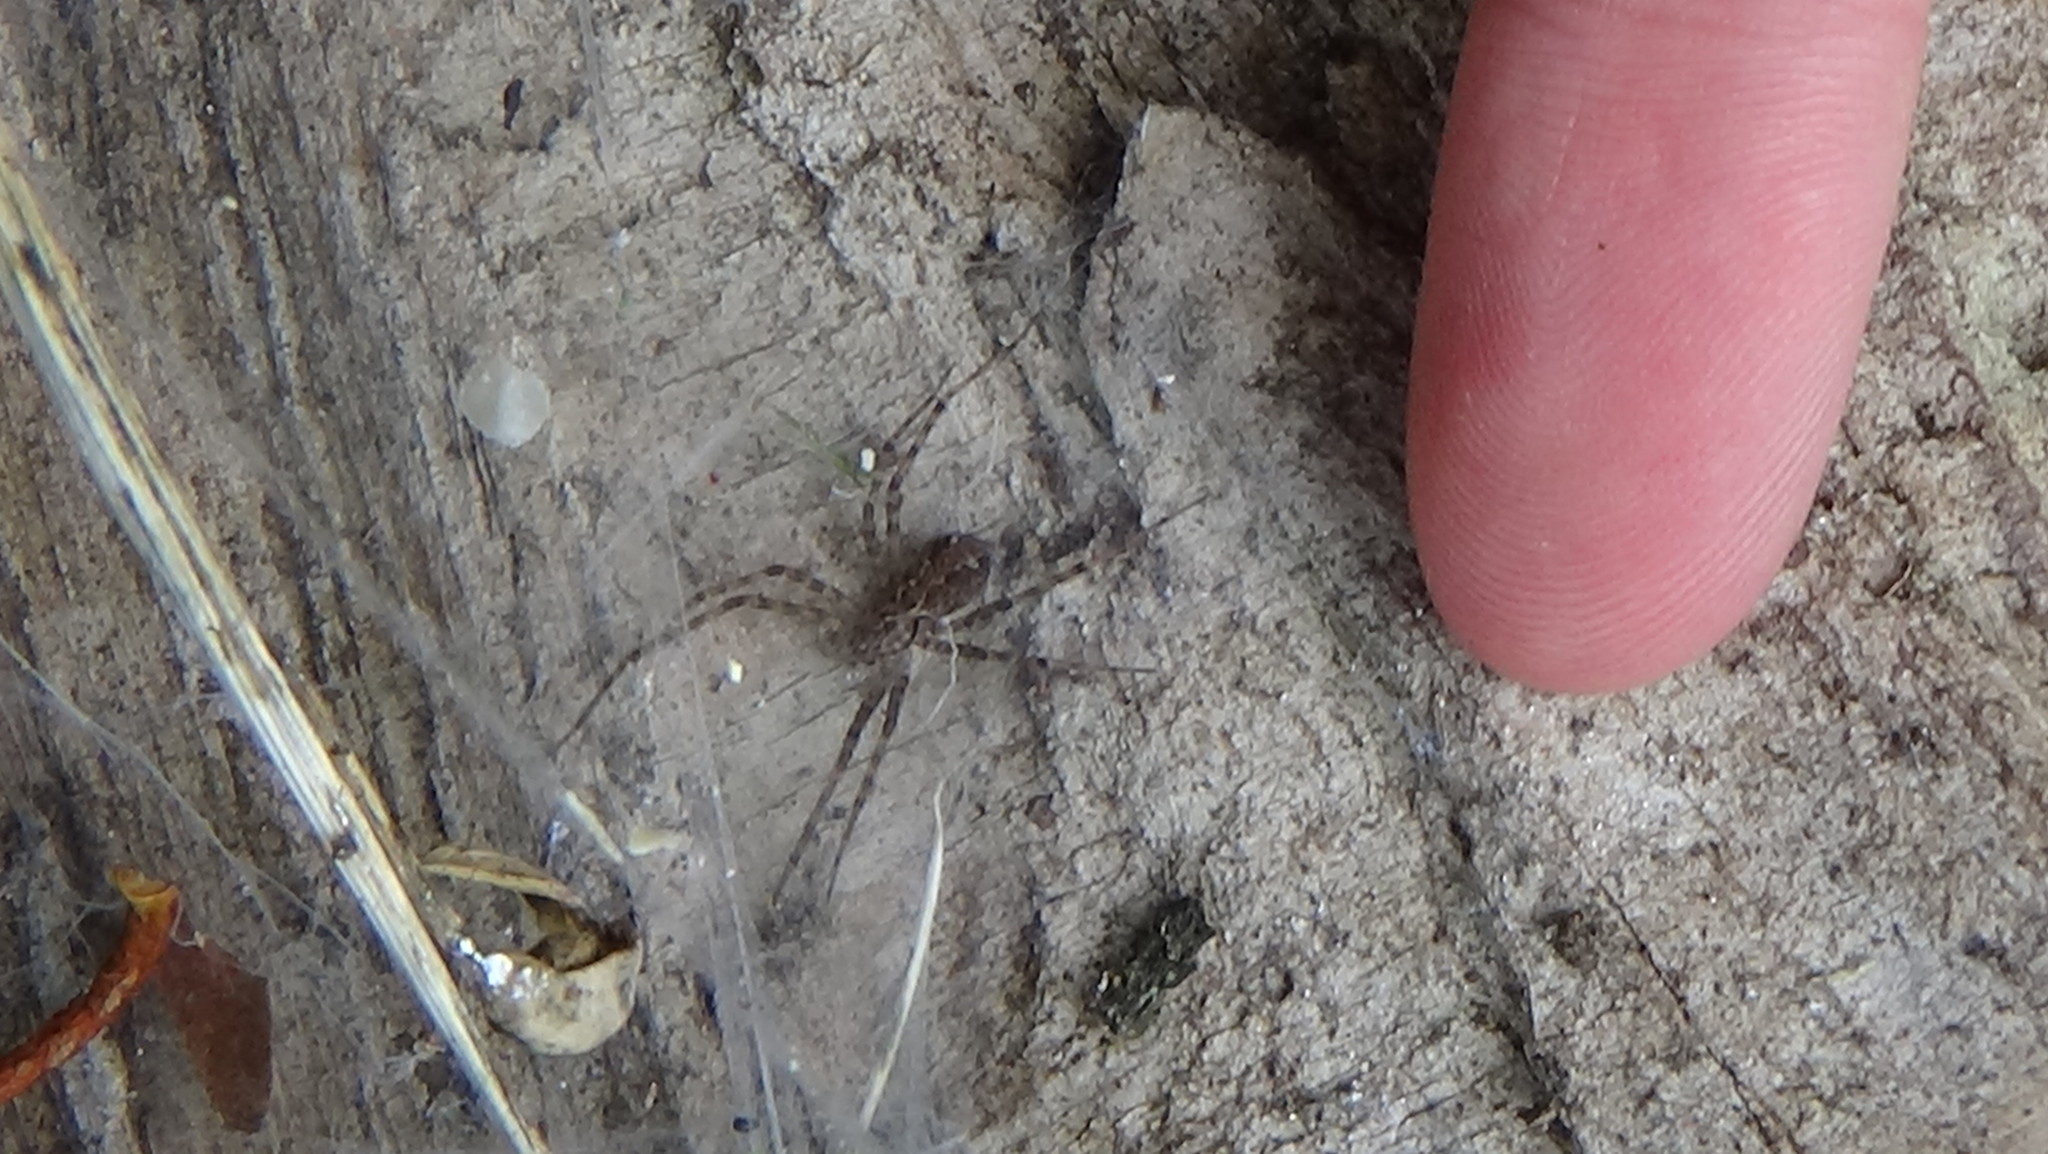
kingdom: Animalia
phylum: Arthropoda
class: Arachnida
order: Araneae
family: Stiphidiidae
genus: Stiphidion
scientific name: Stiphidion facetum
